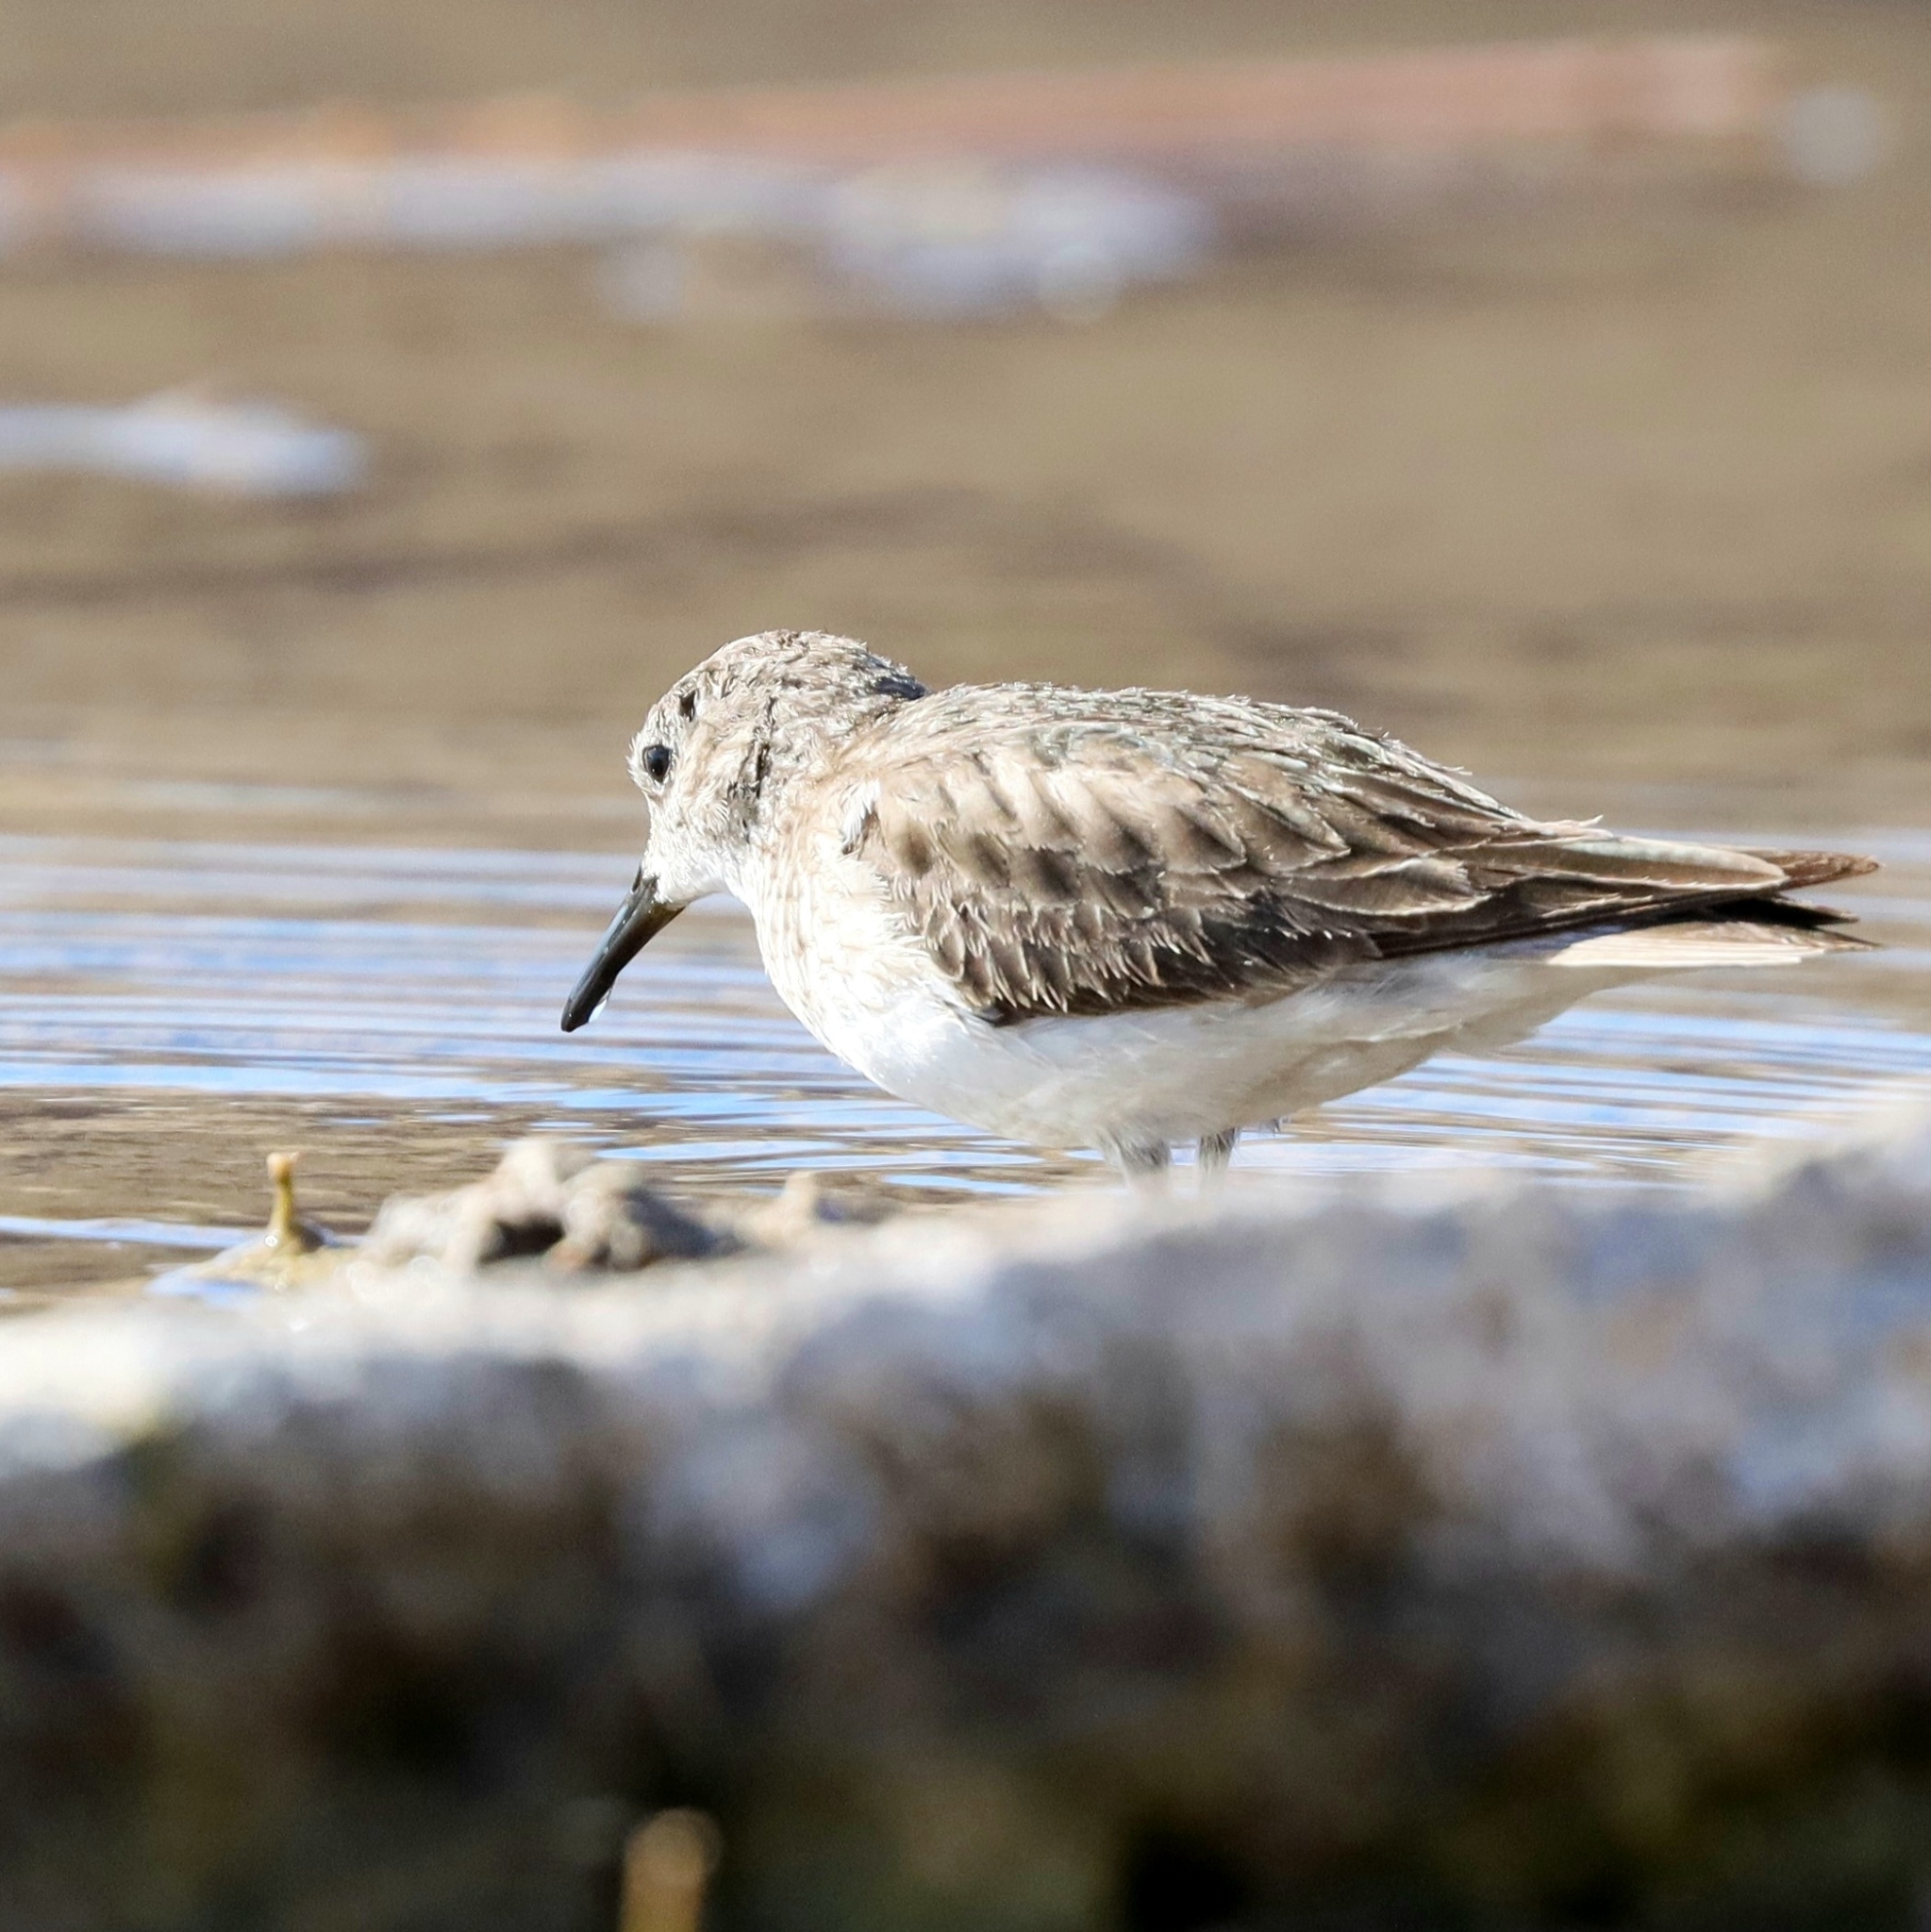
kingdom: Animalia
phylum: Chordata
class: Aves
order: Charadriiformes
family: Scolopacidae
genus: Calidris
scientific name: Calidris minutilla
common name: Least sandpiper
